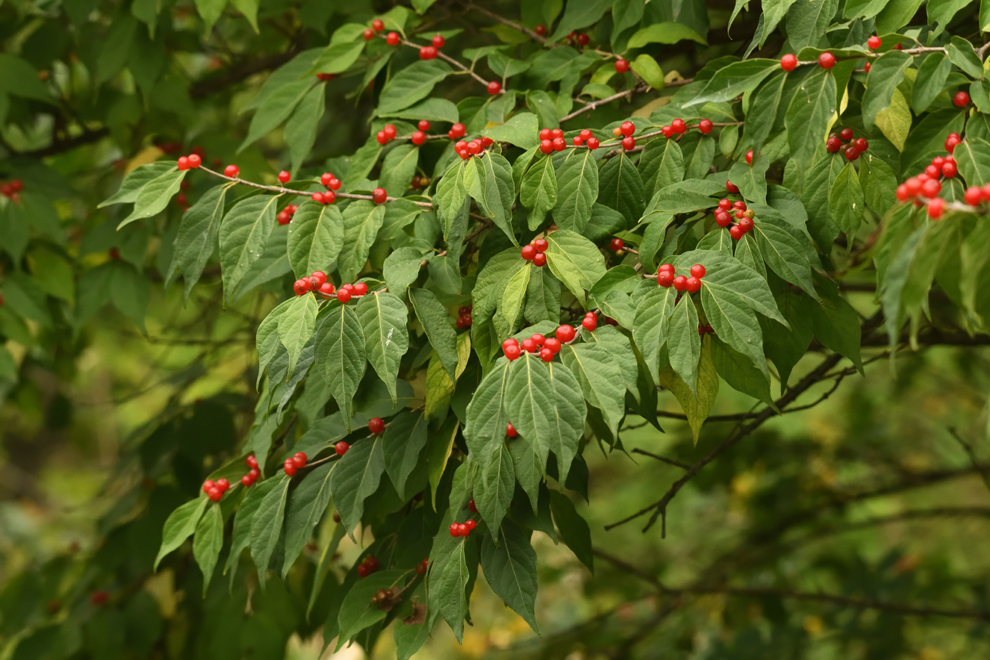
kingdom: Plantae
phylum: Tracheophyta
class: Magnoliopsida
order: Dipsacales
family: Caprifoliaceae
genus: Lonicera
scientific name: Lonicera maackii
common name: Amur honeysuckle
